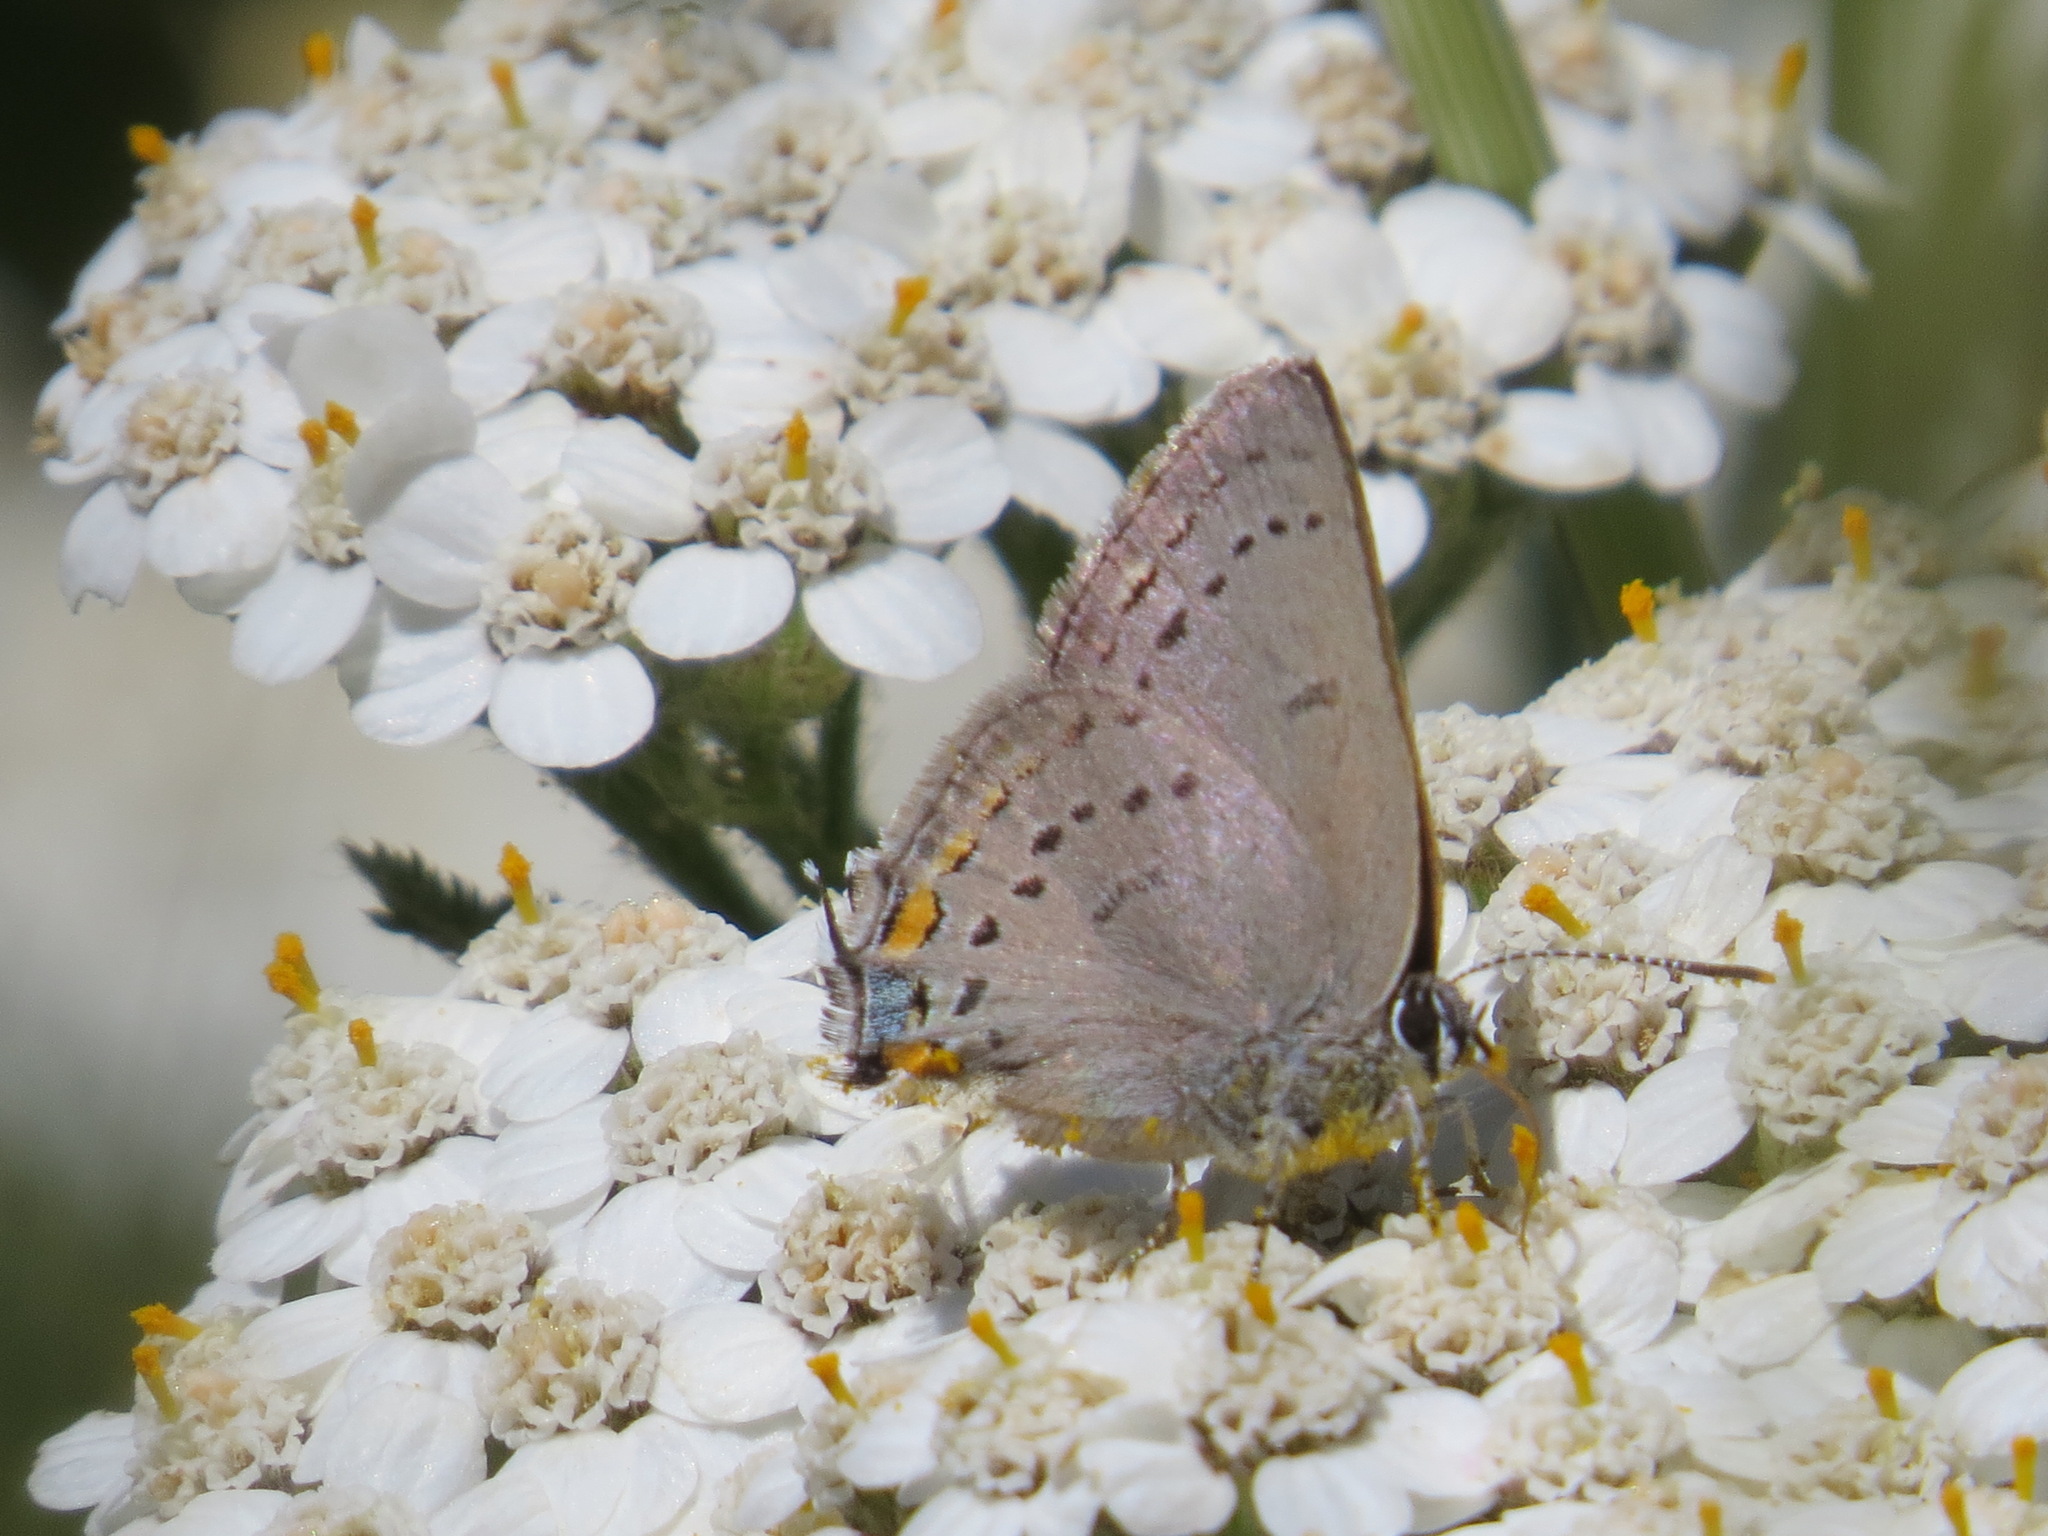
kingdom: Animalia
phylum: Arthropoda
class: Insecta
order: Lepidoptera
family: Lycaenidae
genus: Strymon
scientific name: Strymon acadica
